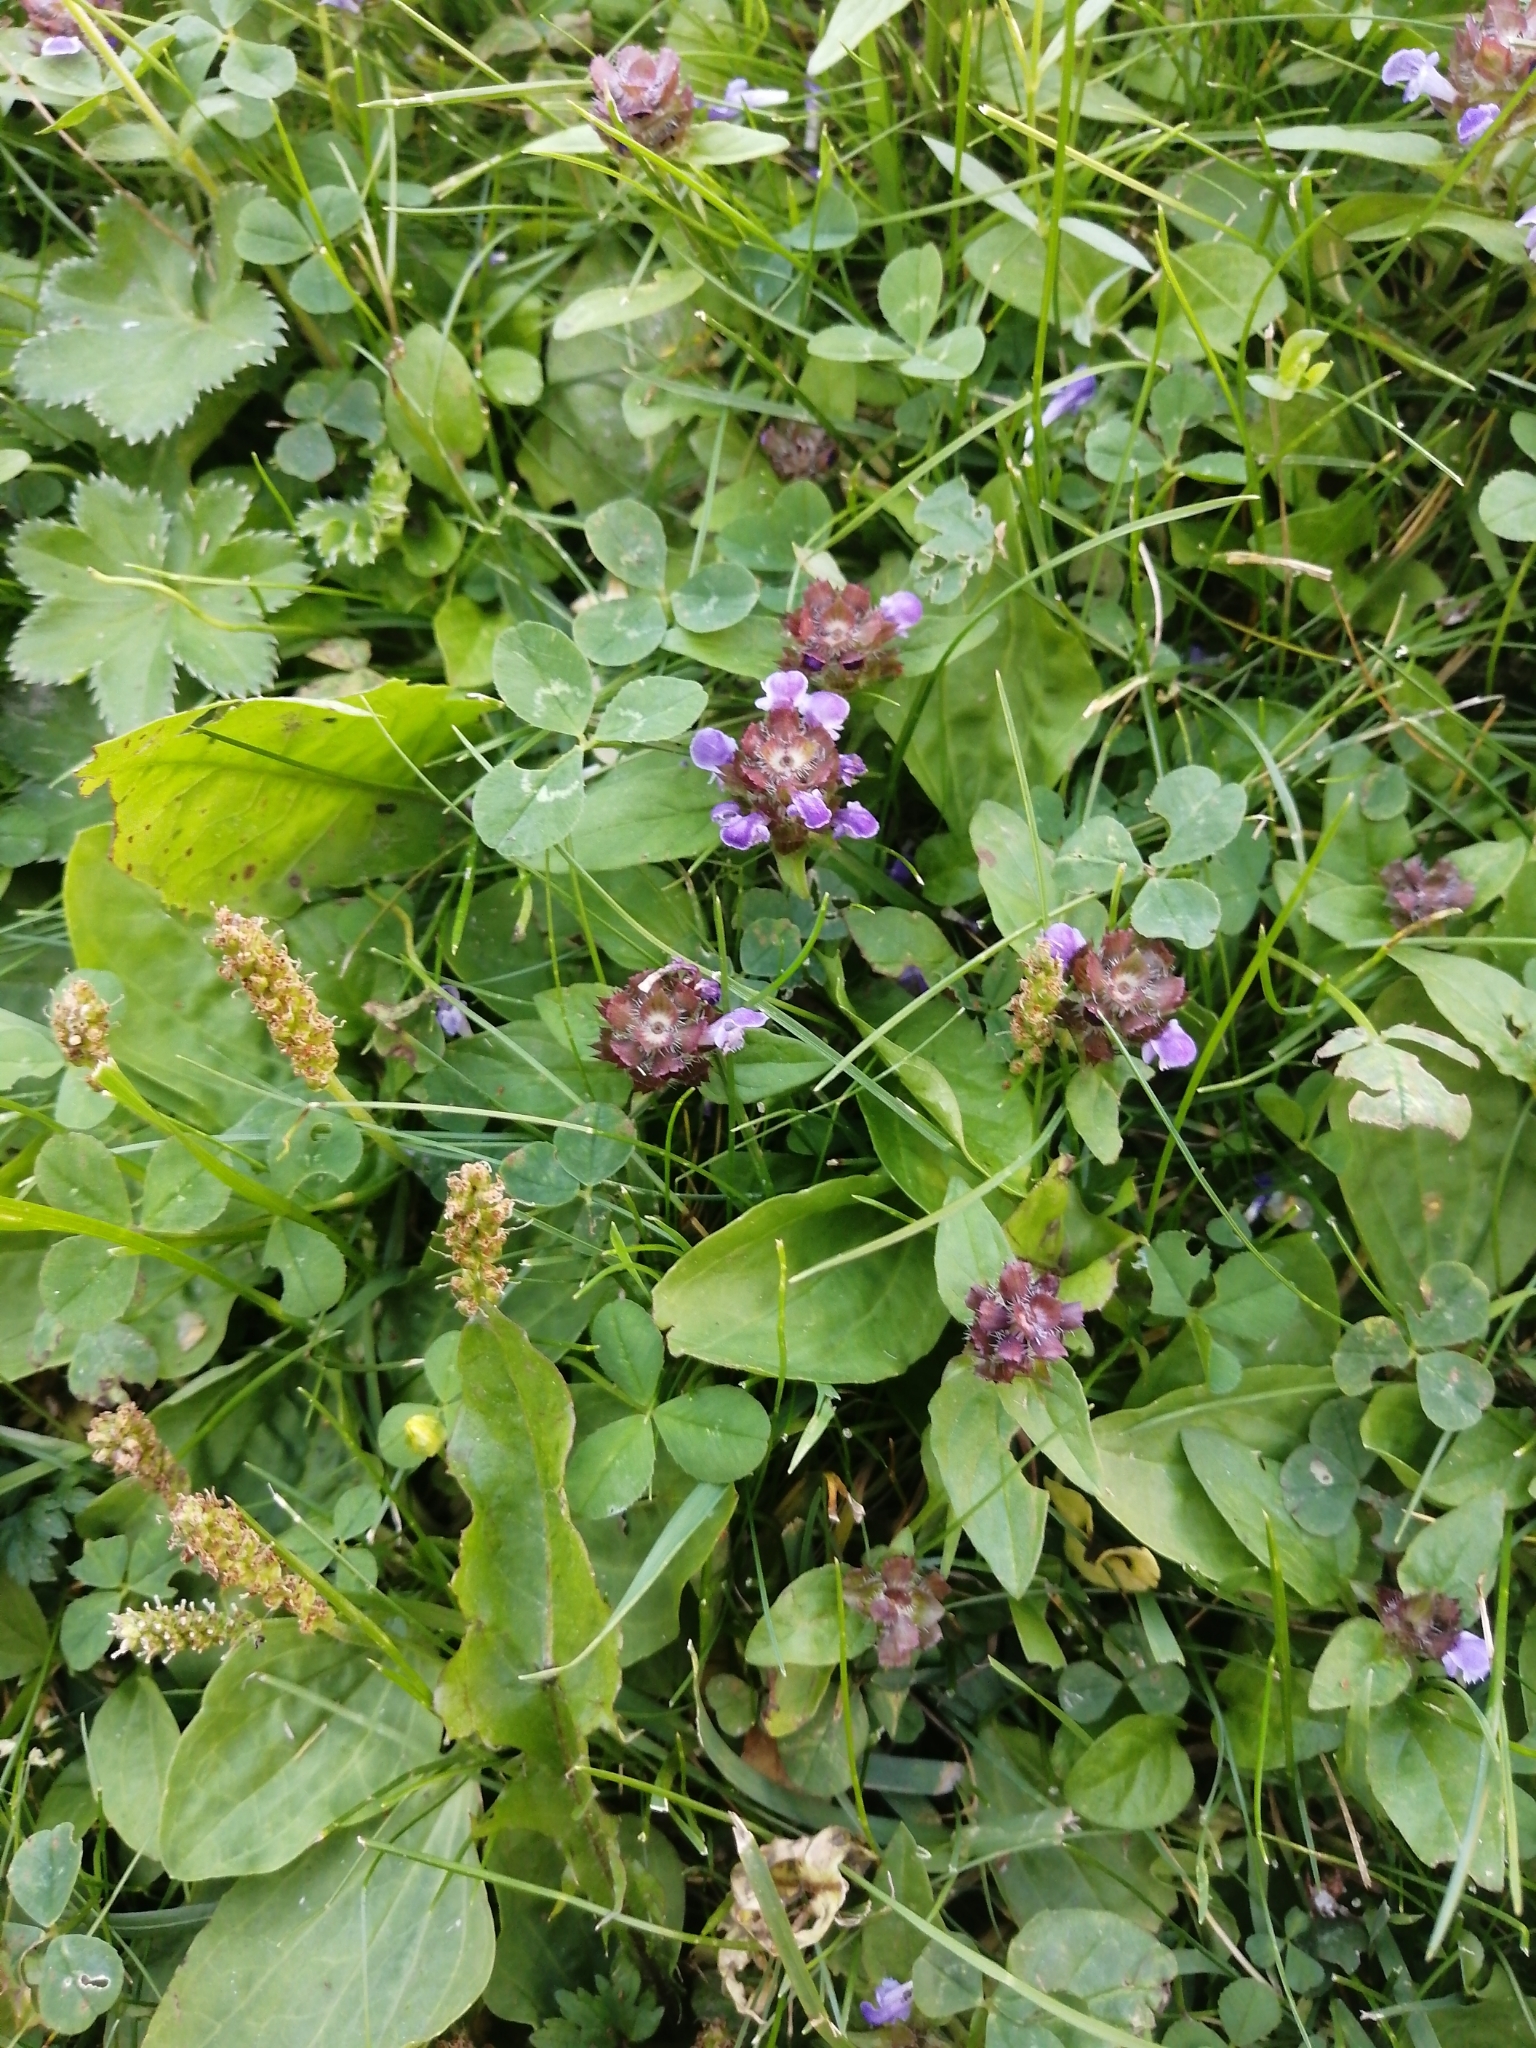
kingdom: Plantae
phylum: Tracheophyta
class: Magnoliopsida
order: Lamiales
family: Lamiaceae
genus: Prunella
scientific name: Prunella vulgaris
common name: Heal-all
